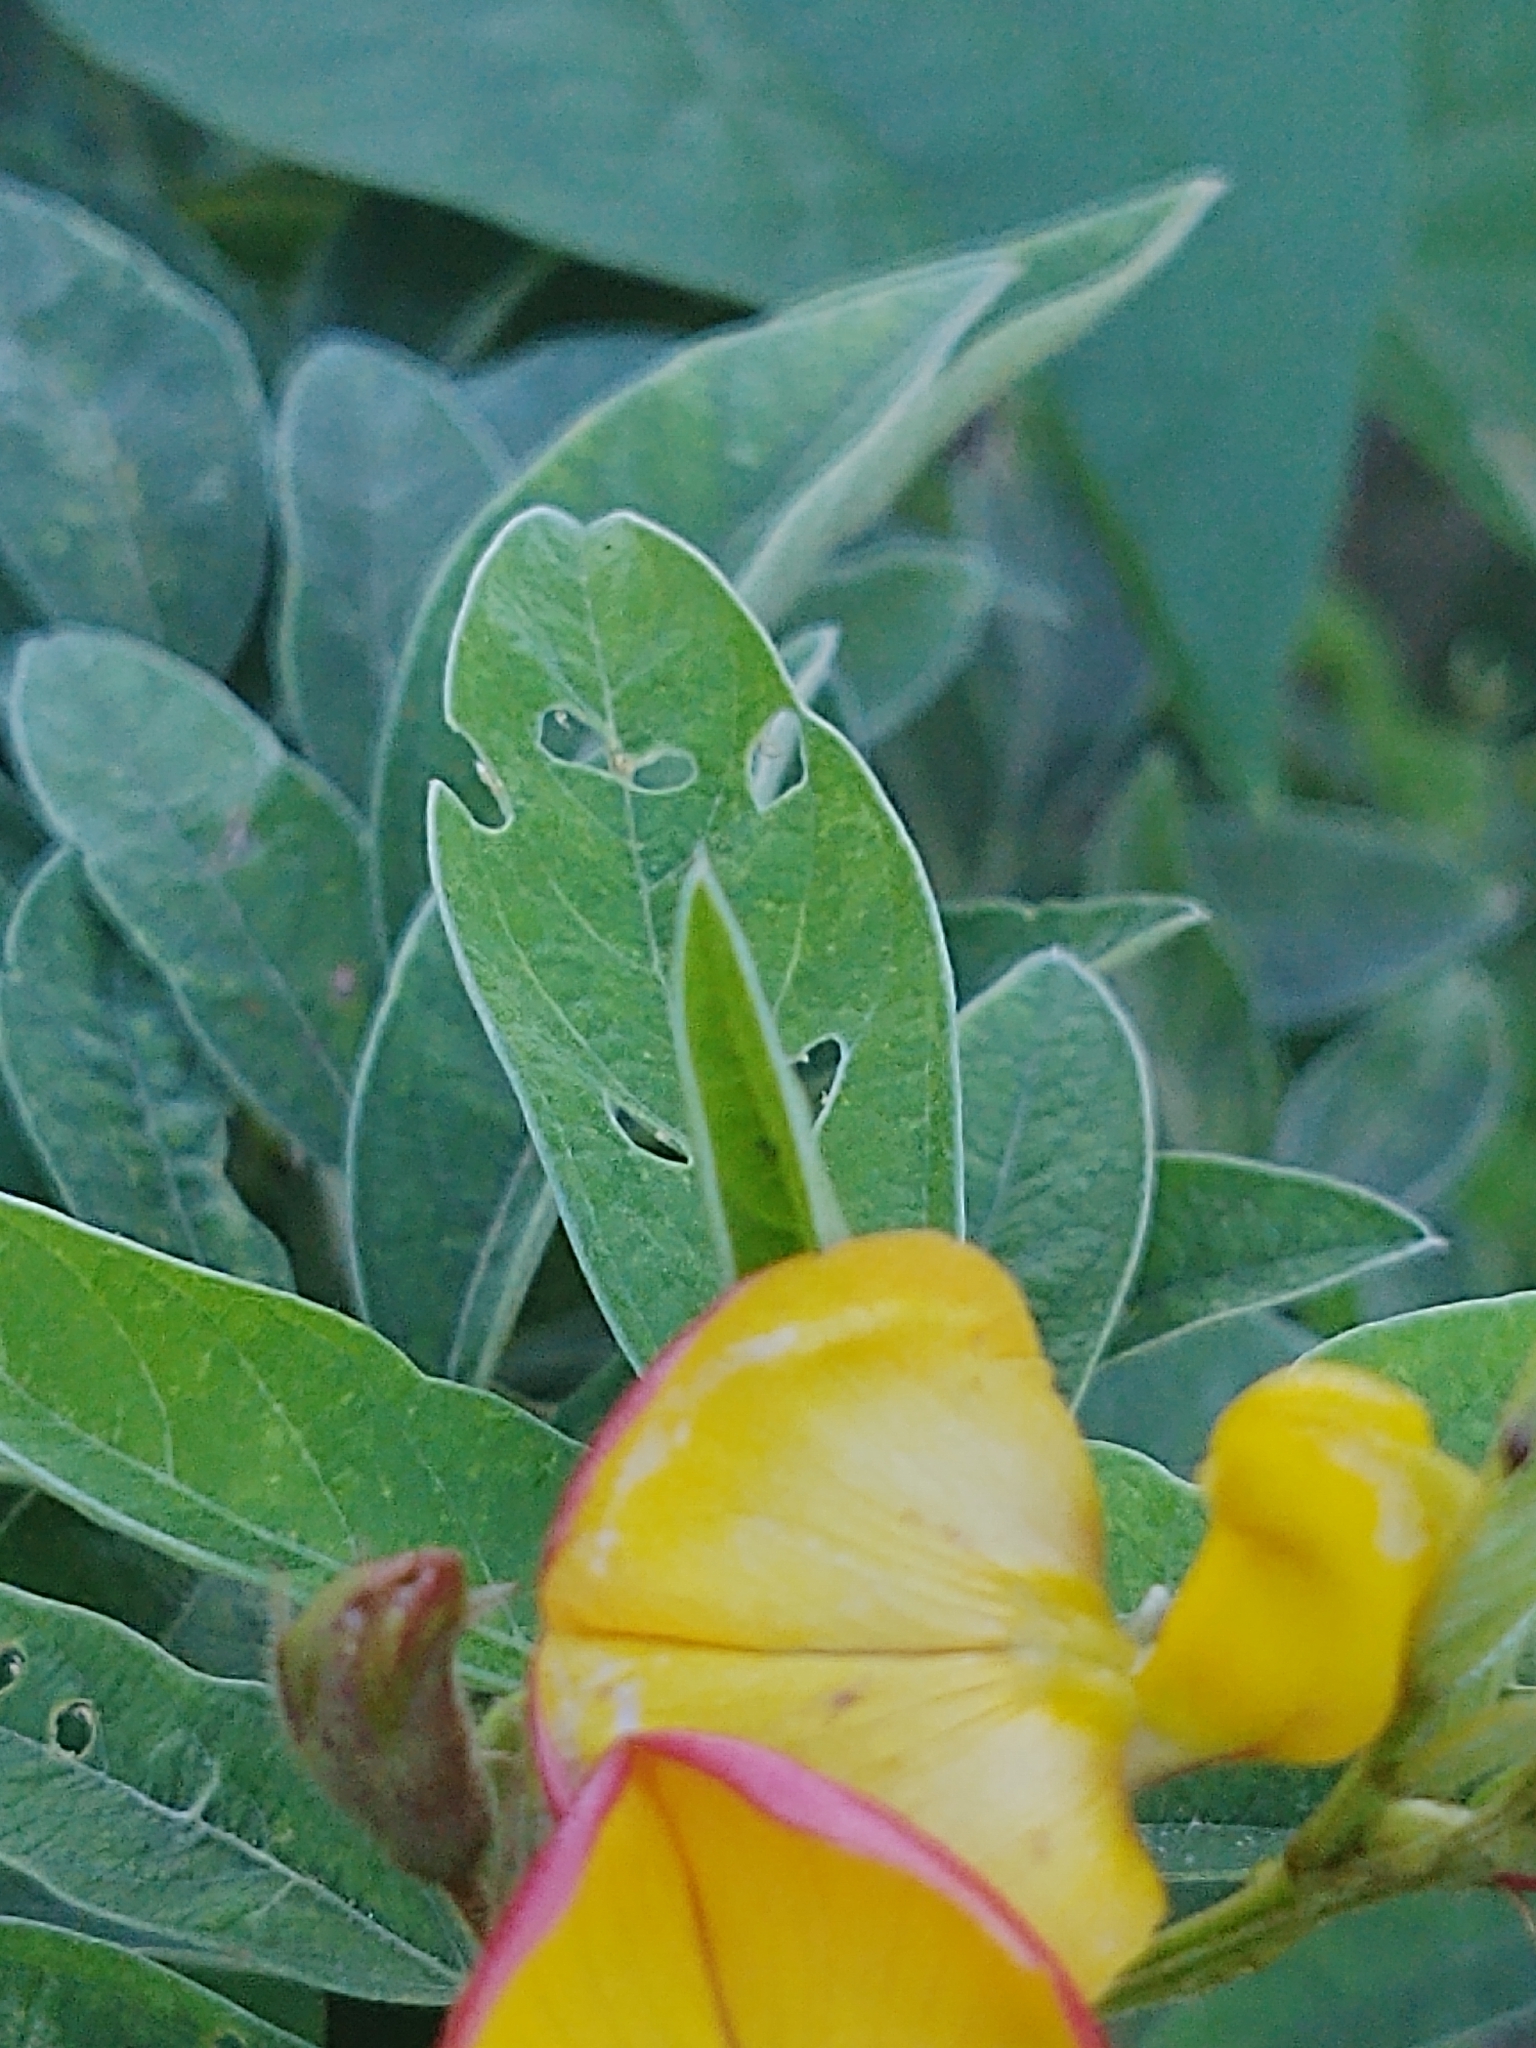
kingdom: Plantae
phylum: Tracheophyta
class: Magnoliopsida
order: Fabales
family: Fabaceae
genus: Cajanus
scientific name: Cajanus cajan
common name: Pigeonpea
